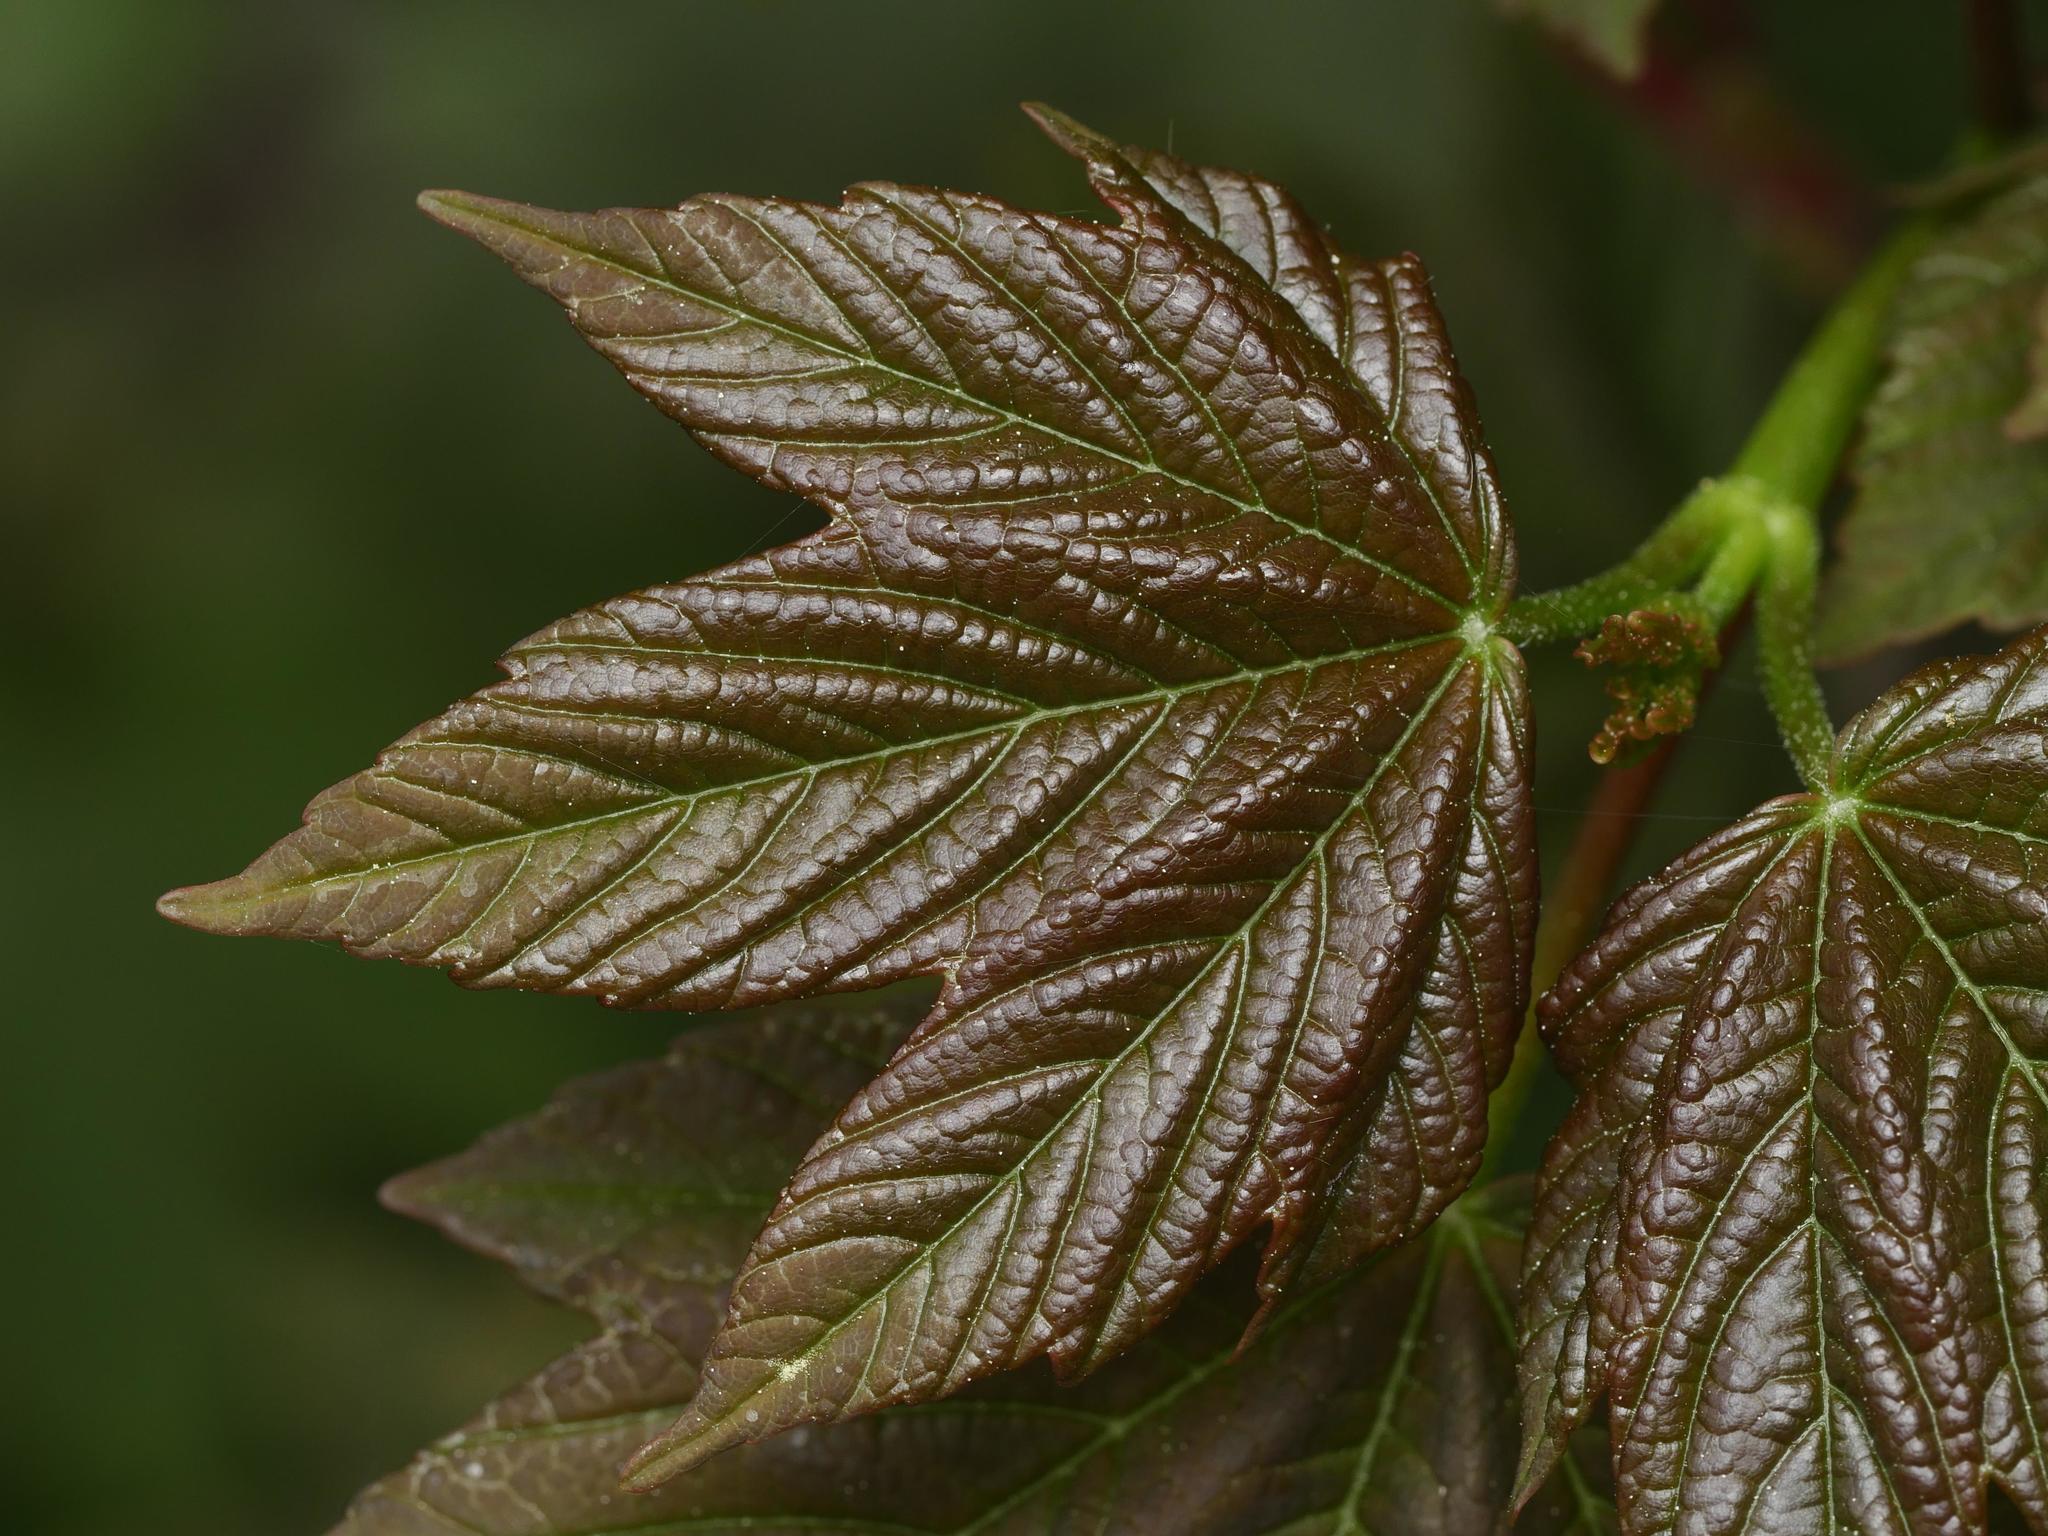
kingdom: Plantae
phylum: Tracheophyta
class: Magnoliopsida
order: Sapindales
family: Sapindaceae
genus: Acer
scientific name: Acer pseudoplatanus
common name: Sycamore
